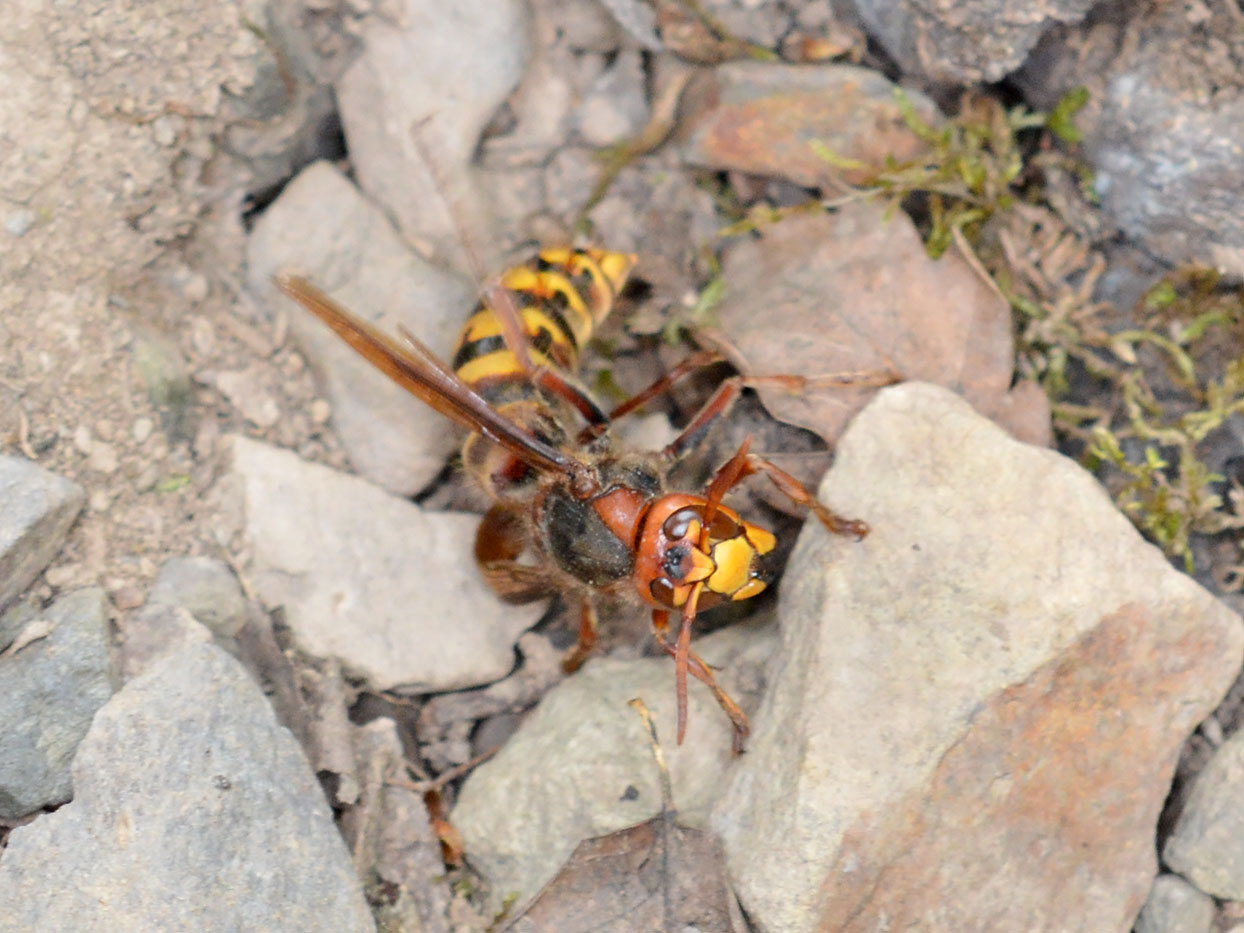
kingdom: Animalia
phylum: Arthropoda
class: Insecta
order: Hymenoptera
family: Vespidae
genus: Vespa
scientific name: Vespa crabro
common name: Hornet
